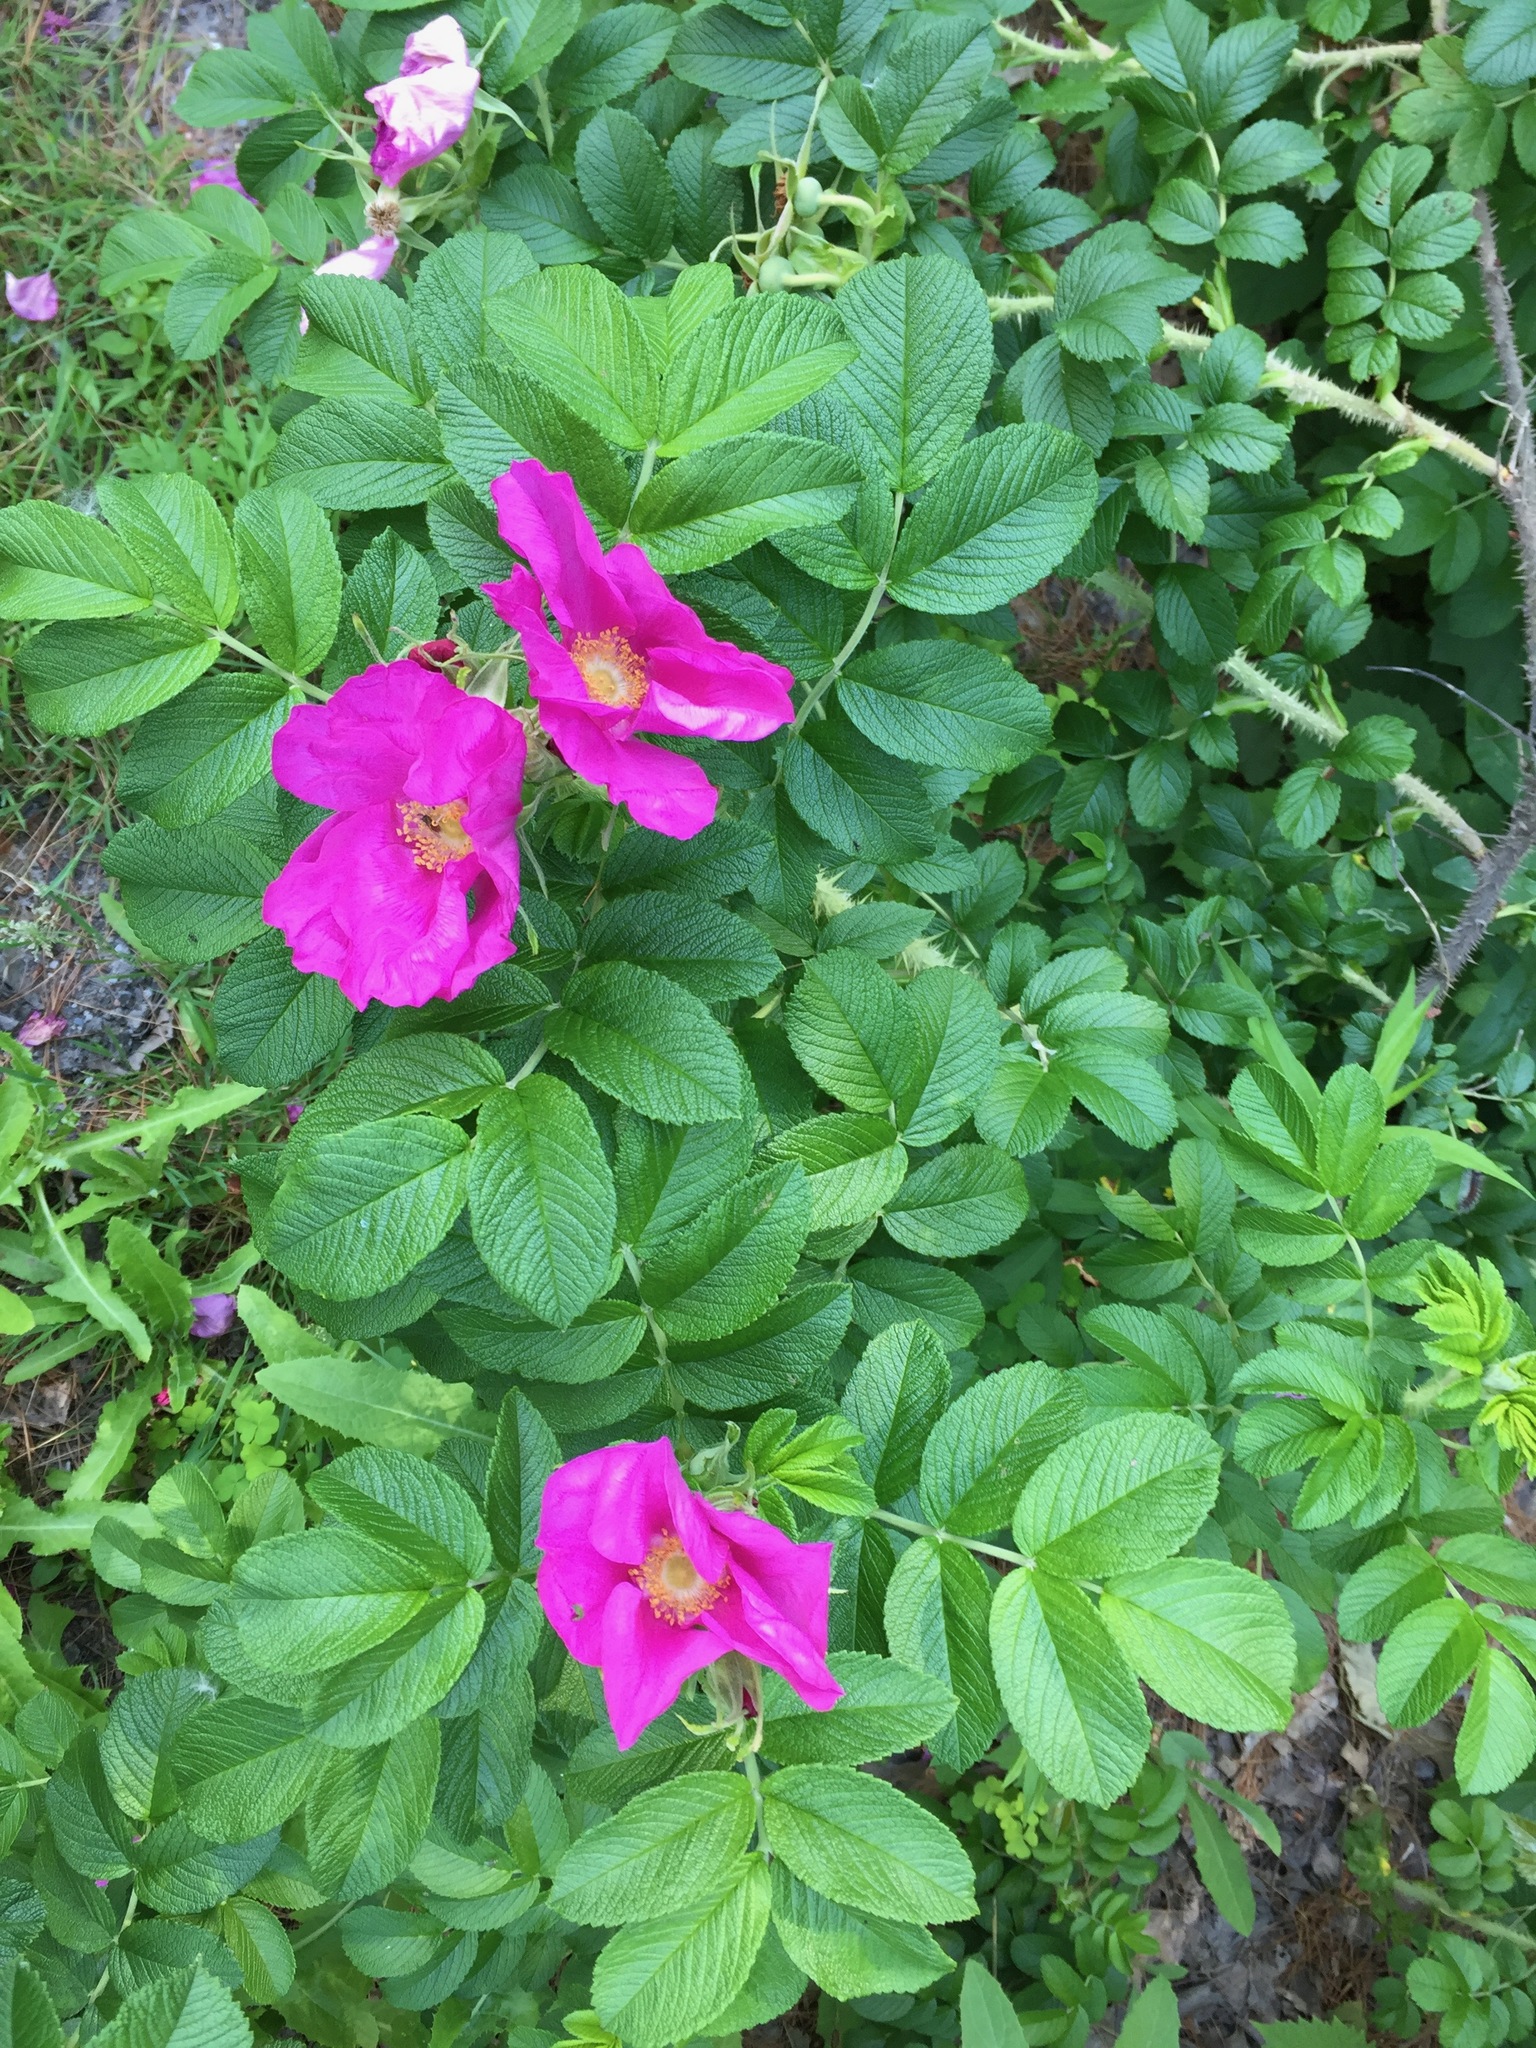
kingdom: Plantae
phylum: Tracheophyta
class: Magnoliopsida
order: Rosales
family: Rosaceae
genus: Rosa
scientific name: Rosa rugosa
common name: Japanese rose
